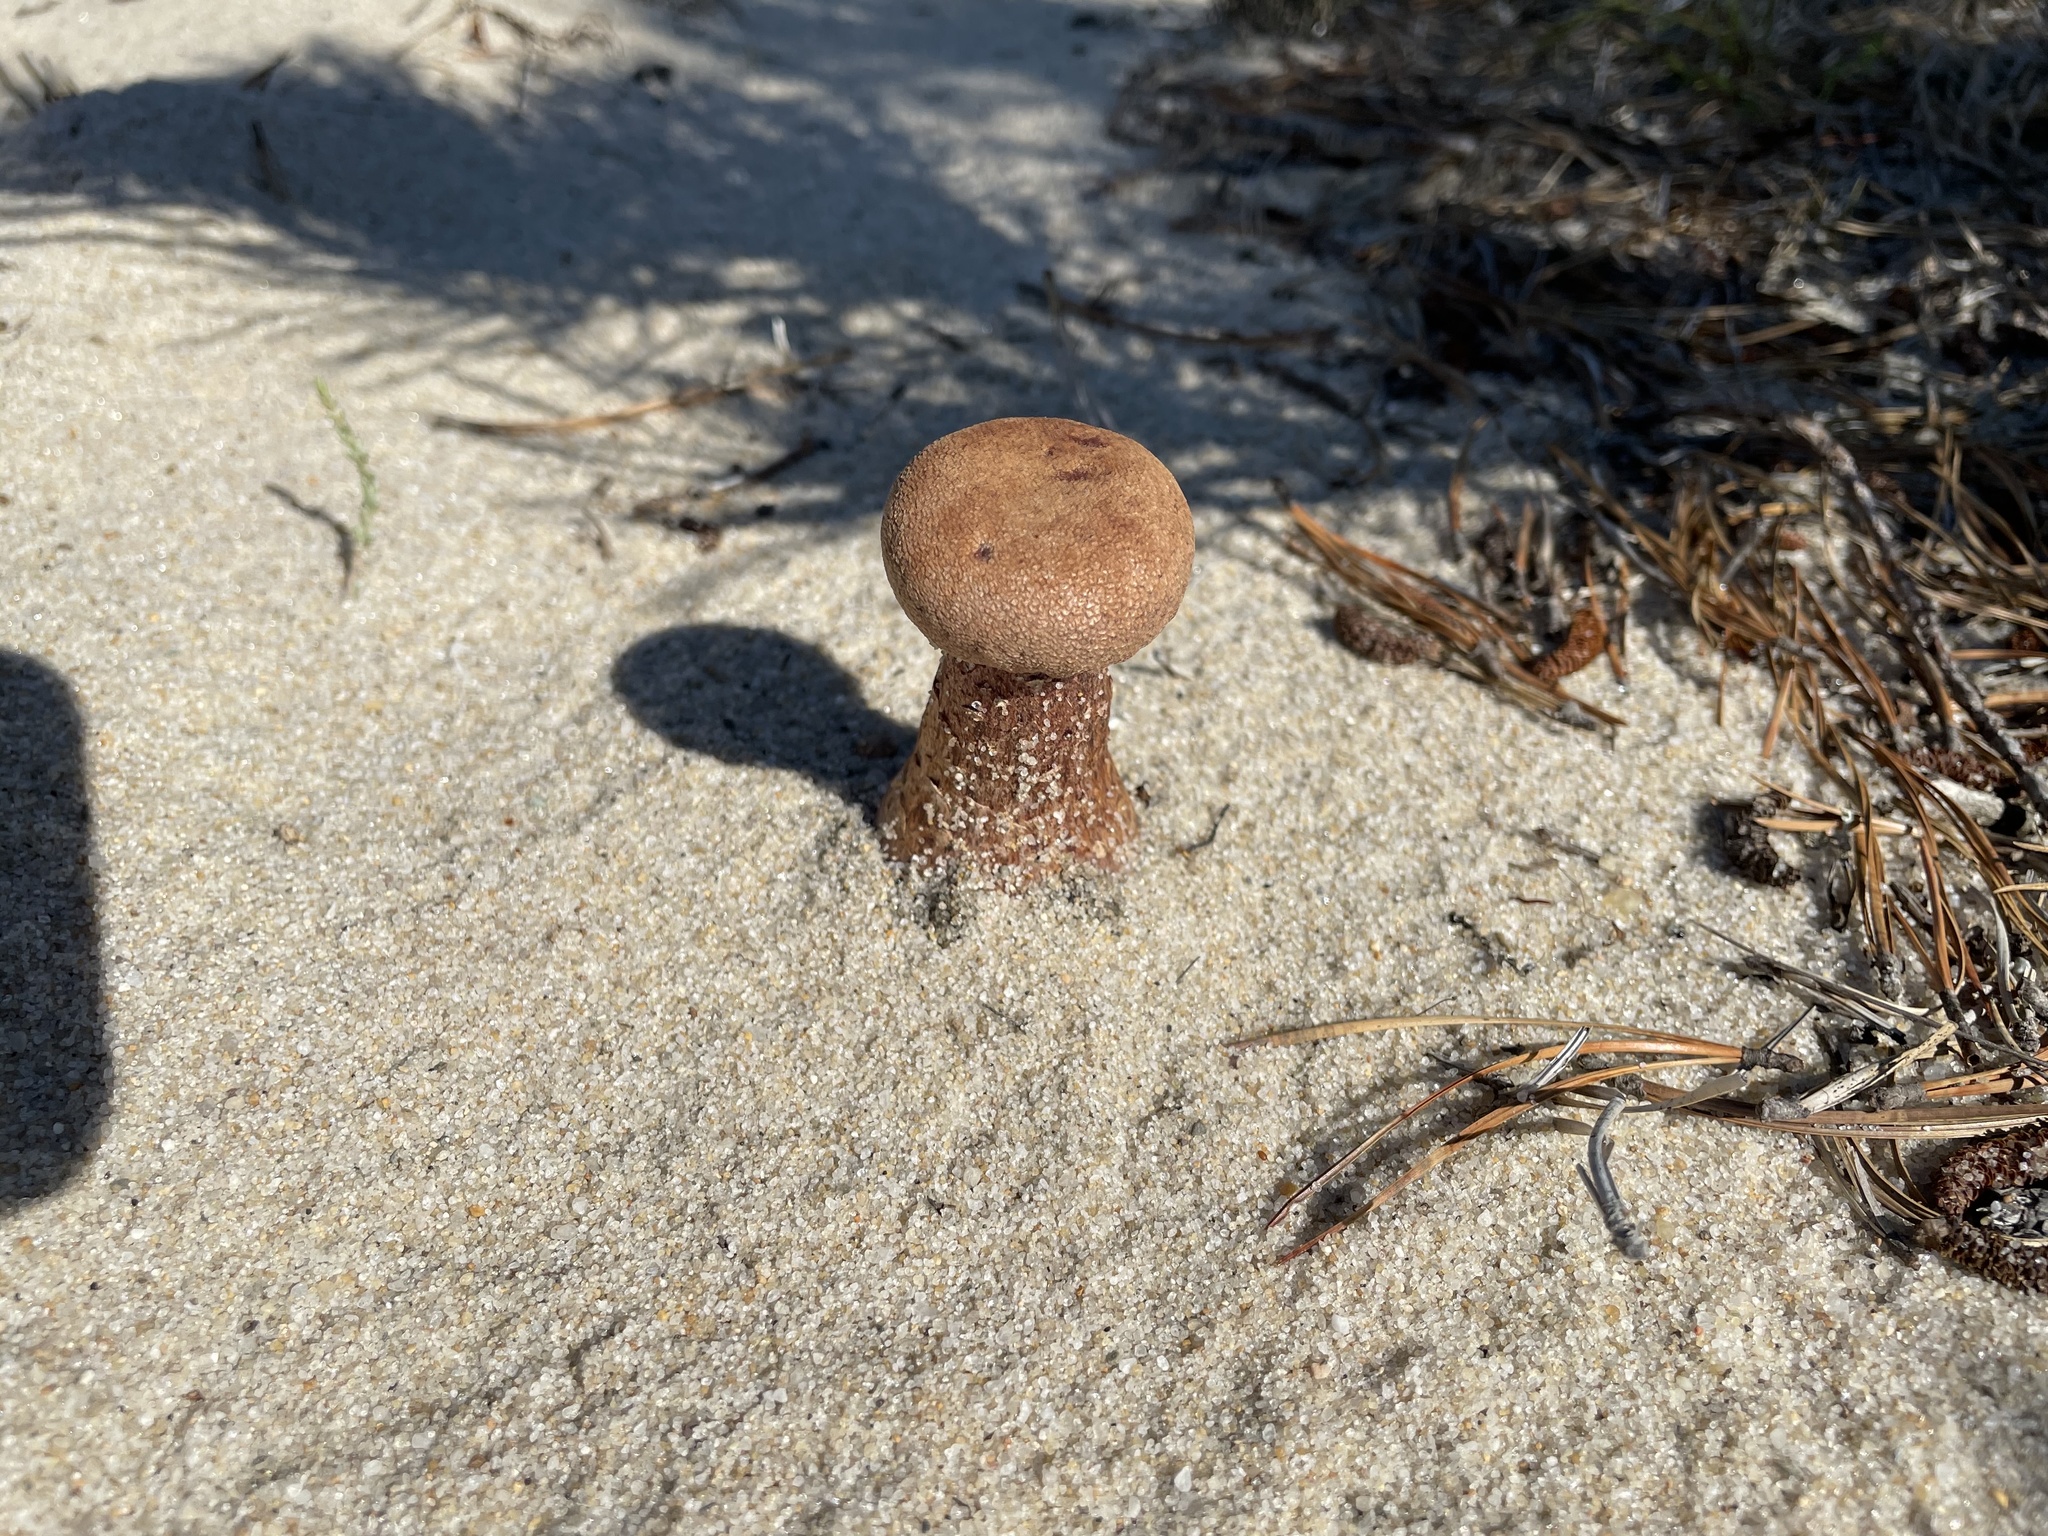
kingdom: Fungi
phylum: Basidiomycota
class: Agaricomycetes
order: Agaricales
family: Hydnangiaceae
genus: Laccaria
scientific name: Laccaria trullissata
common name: Sandy laccaria
